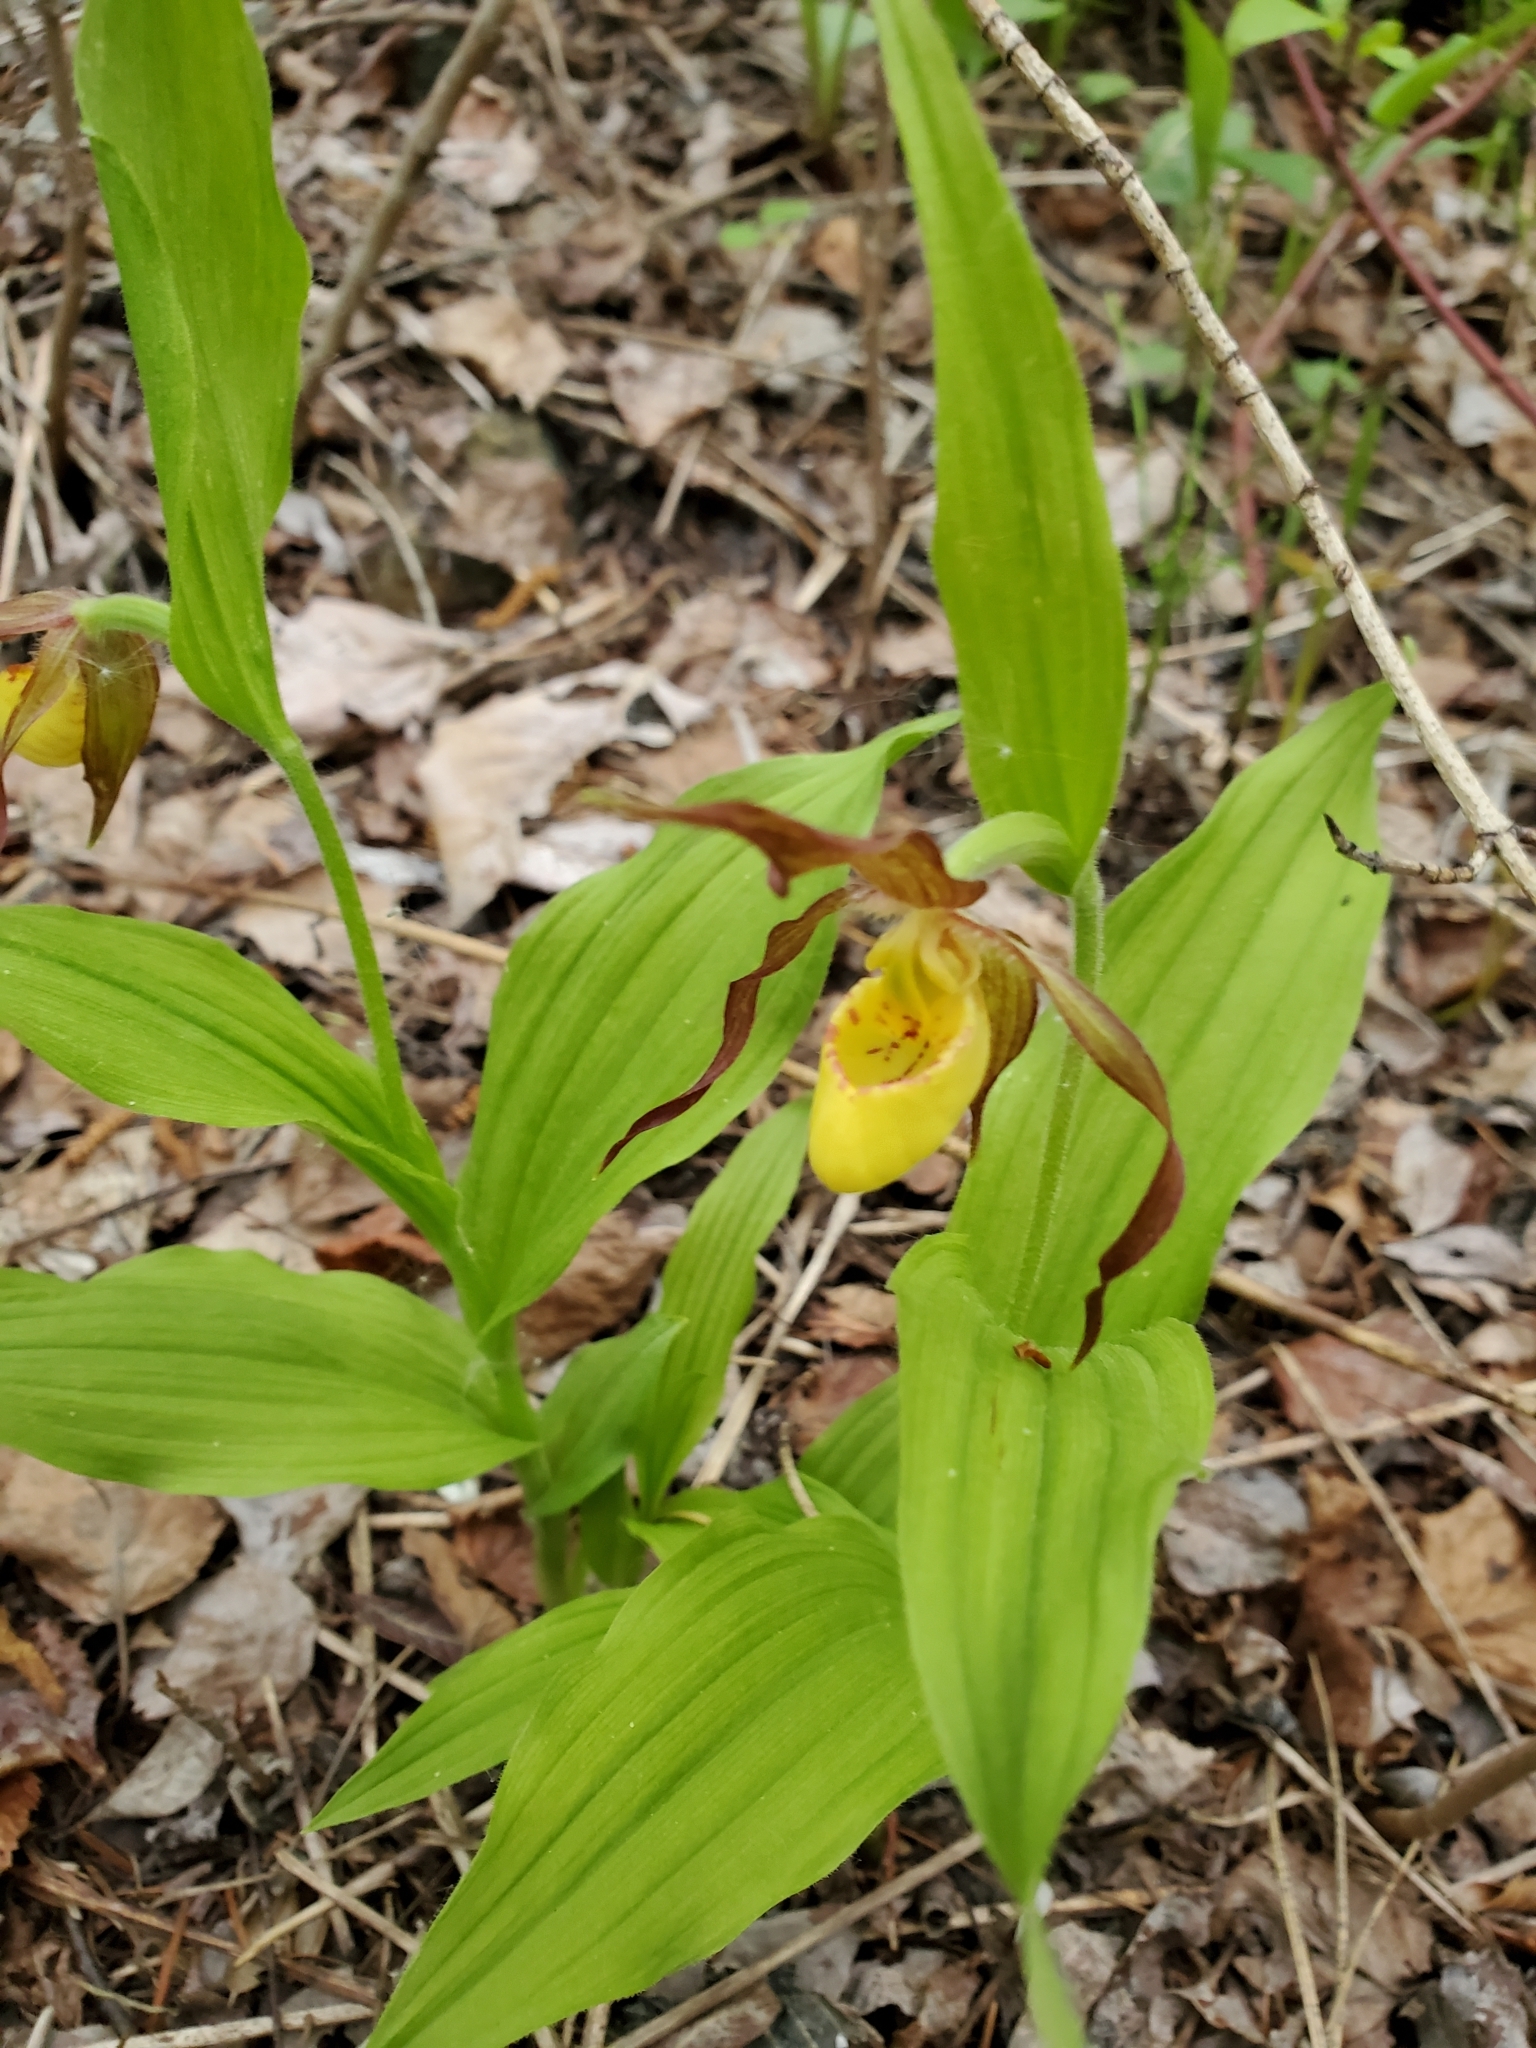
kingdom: Plantae
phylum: Tracheophyta
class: Liliopsida
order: Asparagales
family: Orchidaceae
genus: Cypripedium
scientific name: Cypripedium parviflorum
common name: American yellow lady's-slipper
